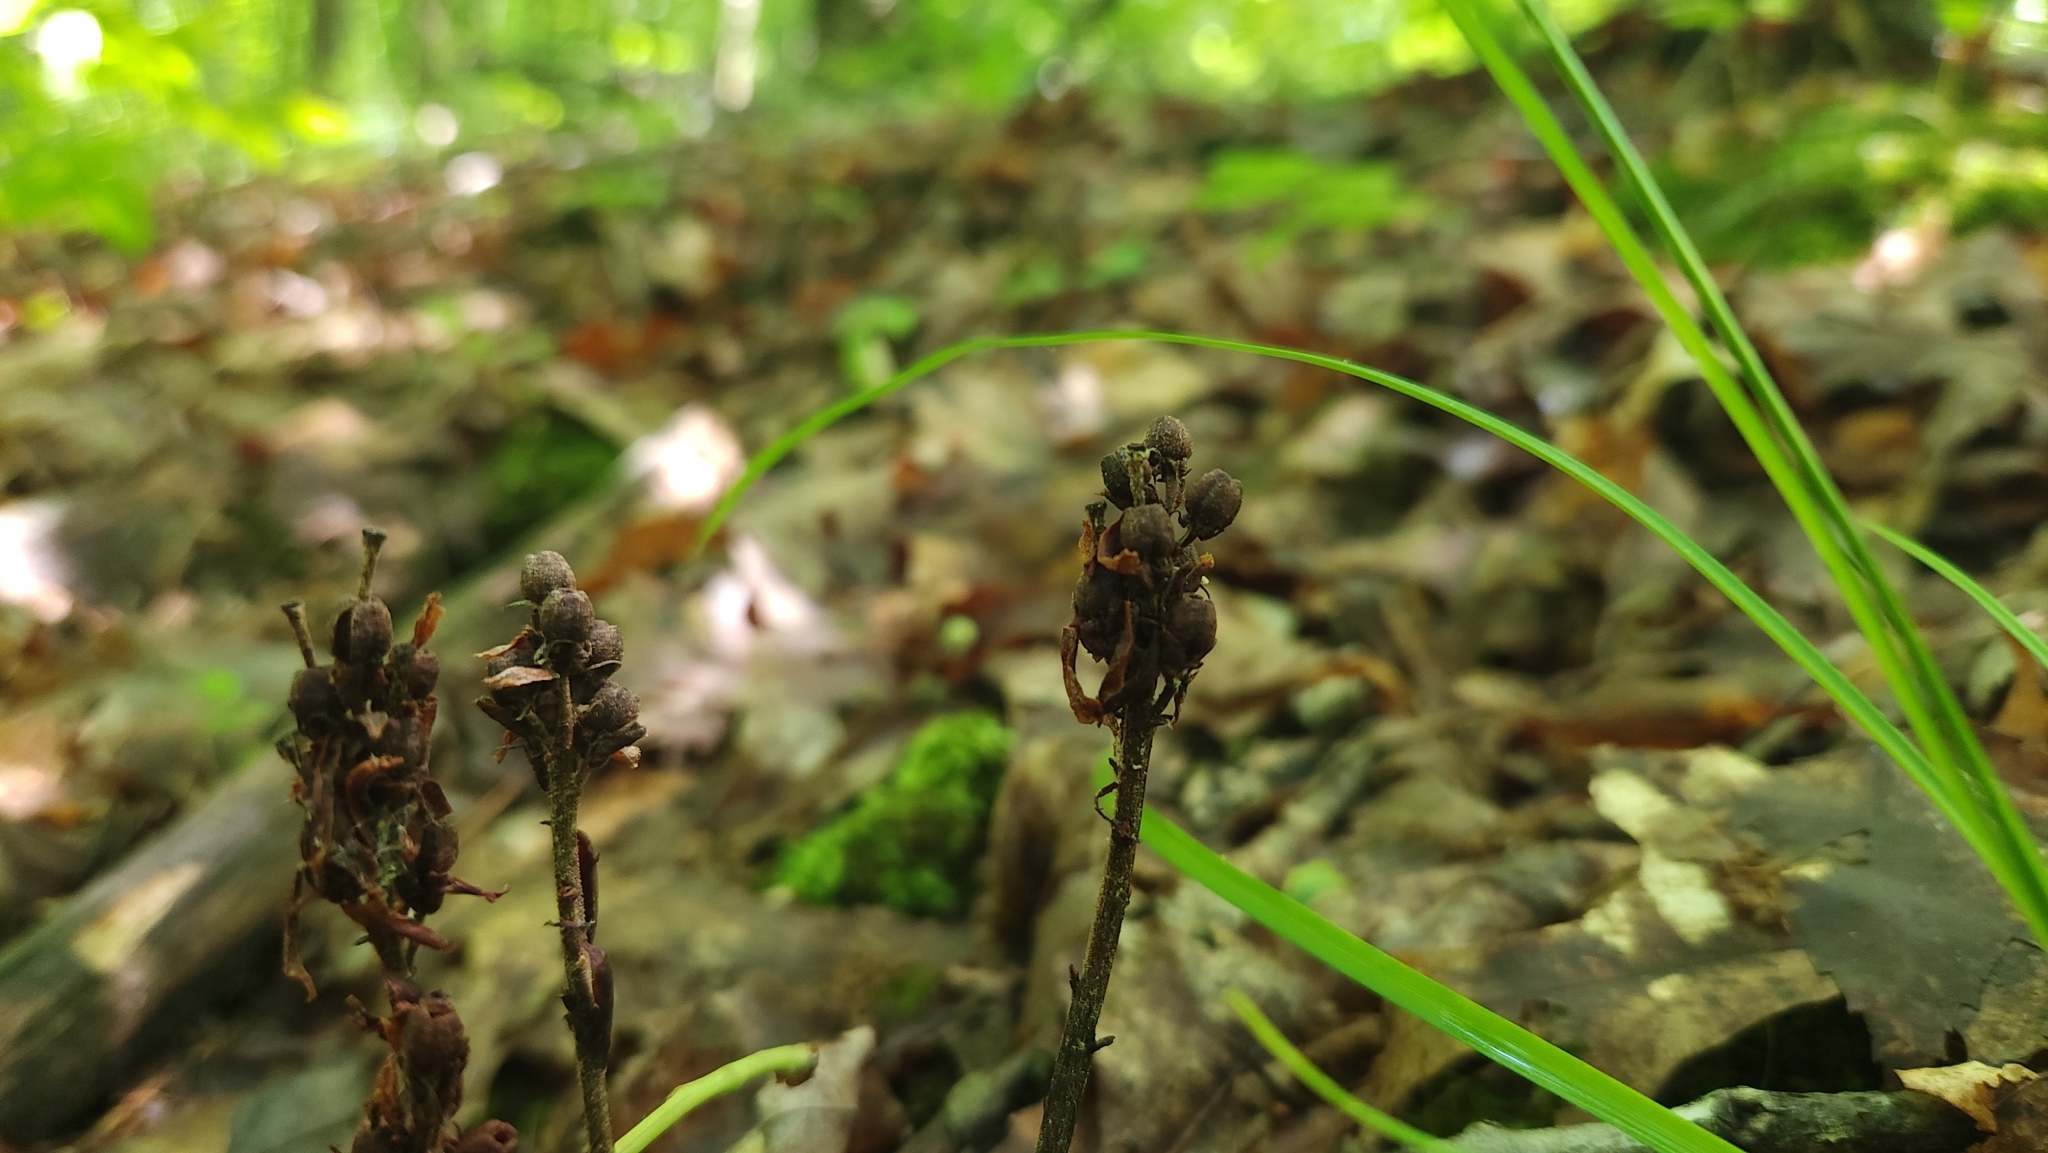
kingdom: Plantae
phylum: Tracheophyta
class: Magnoliopsida
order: Ericales
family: Ericaceae
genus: Hypopitys
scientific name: Hypopitys monotropa
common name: Yellow bird's-nest
